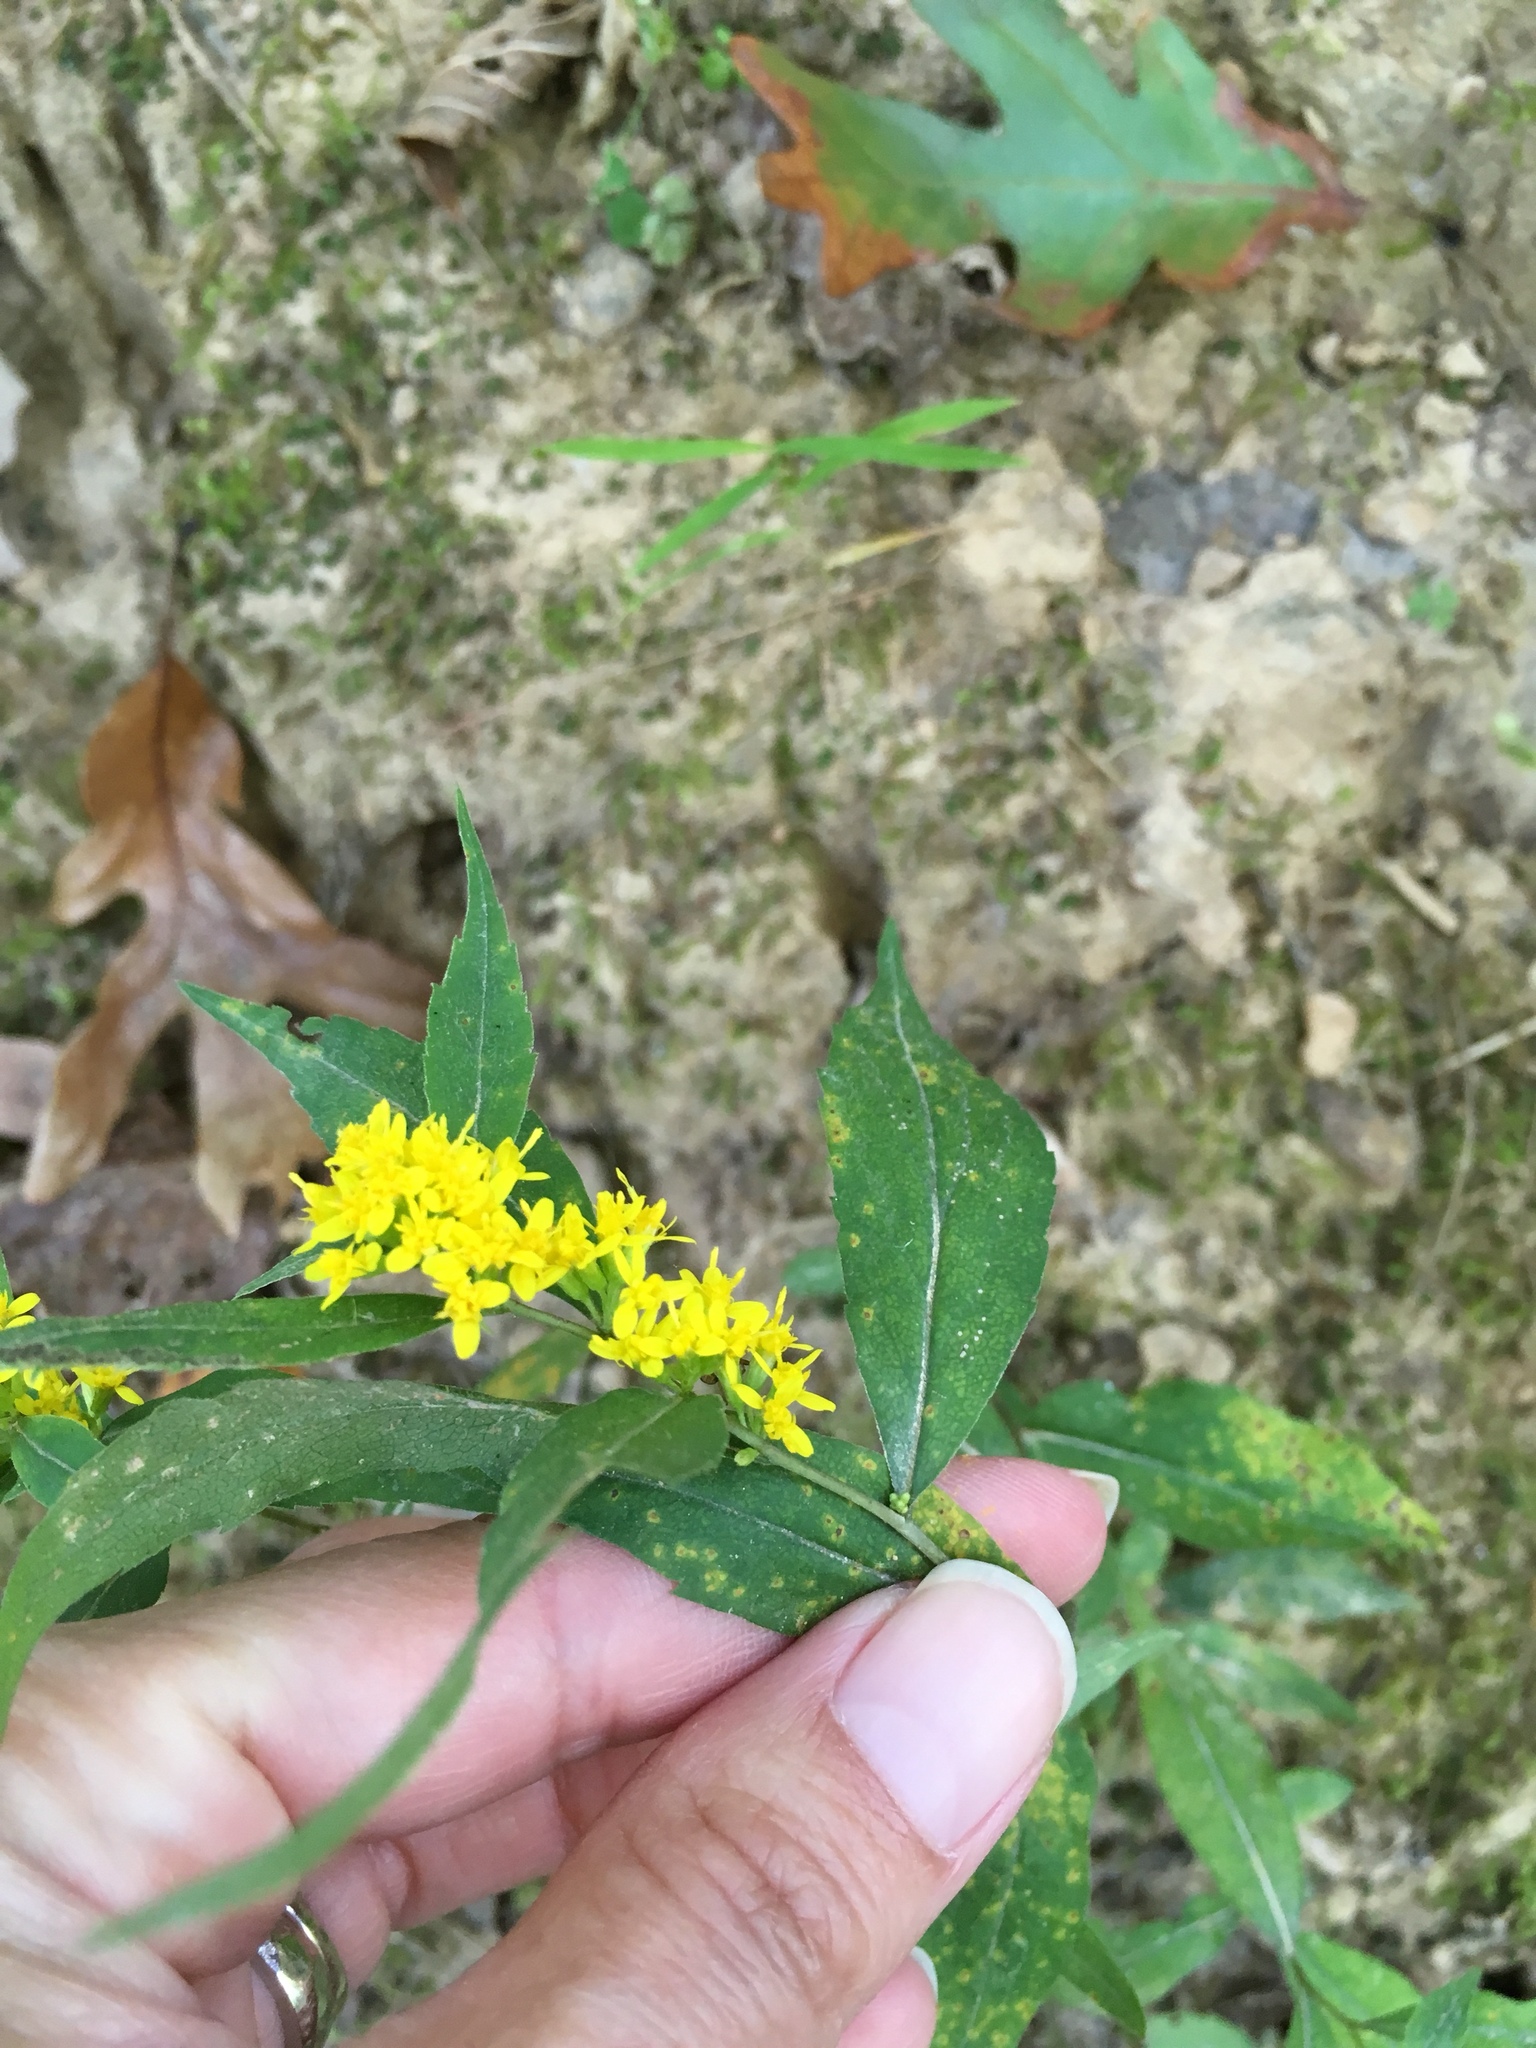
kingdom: Plantae
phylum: Tracheophyta
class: Magnoliopsida
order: Asterales
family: Asteraceae
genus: Solidago
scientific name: Solidago flexicaulis
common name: Zig-zag goldenrod
